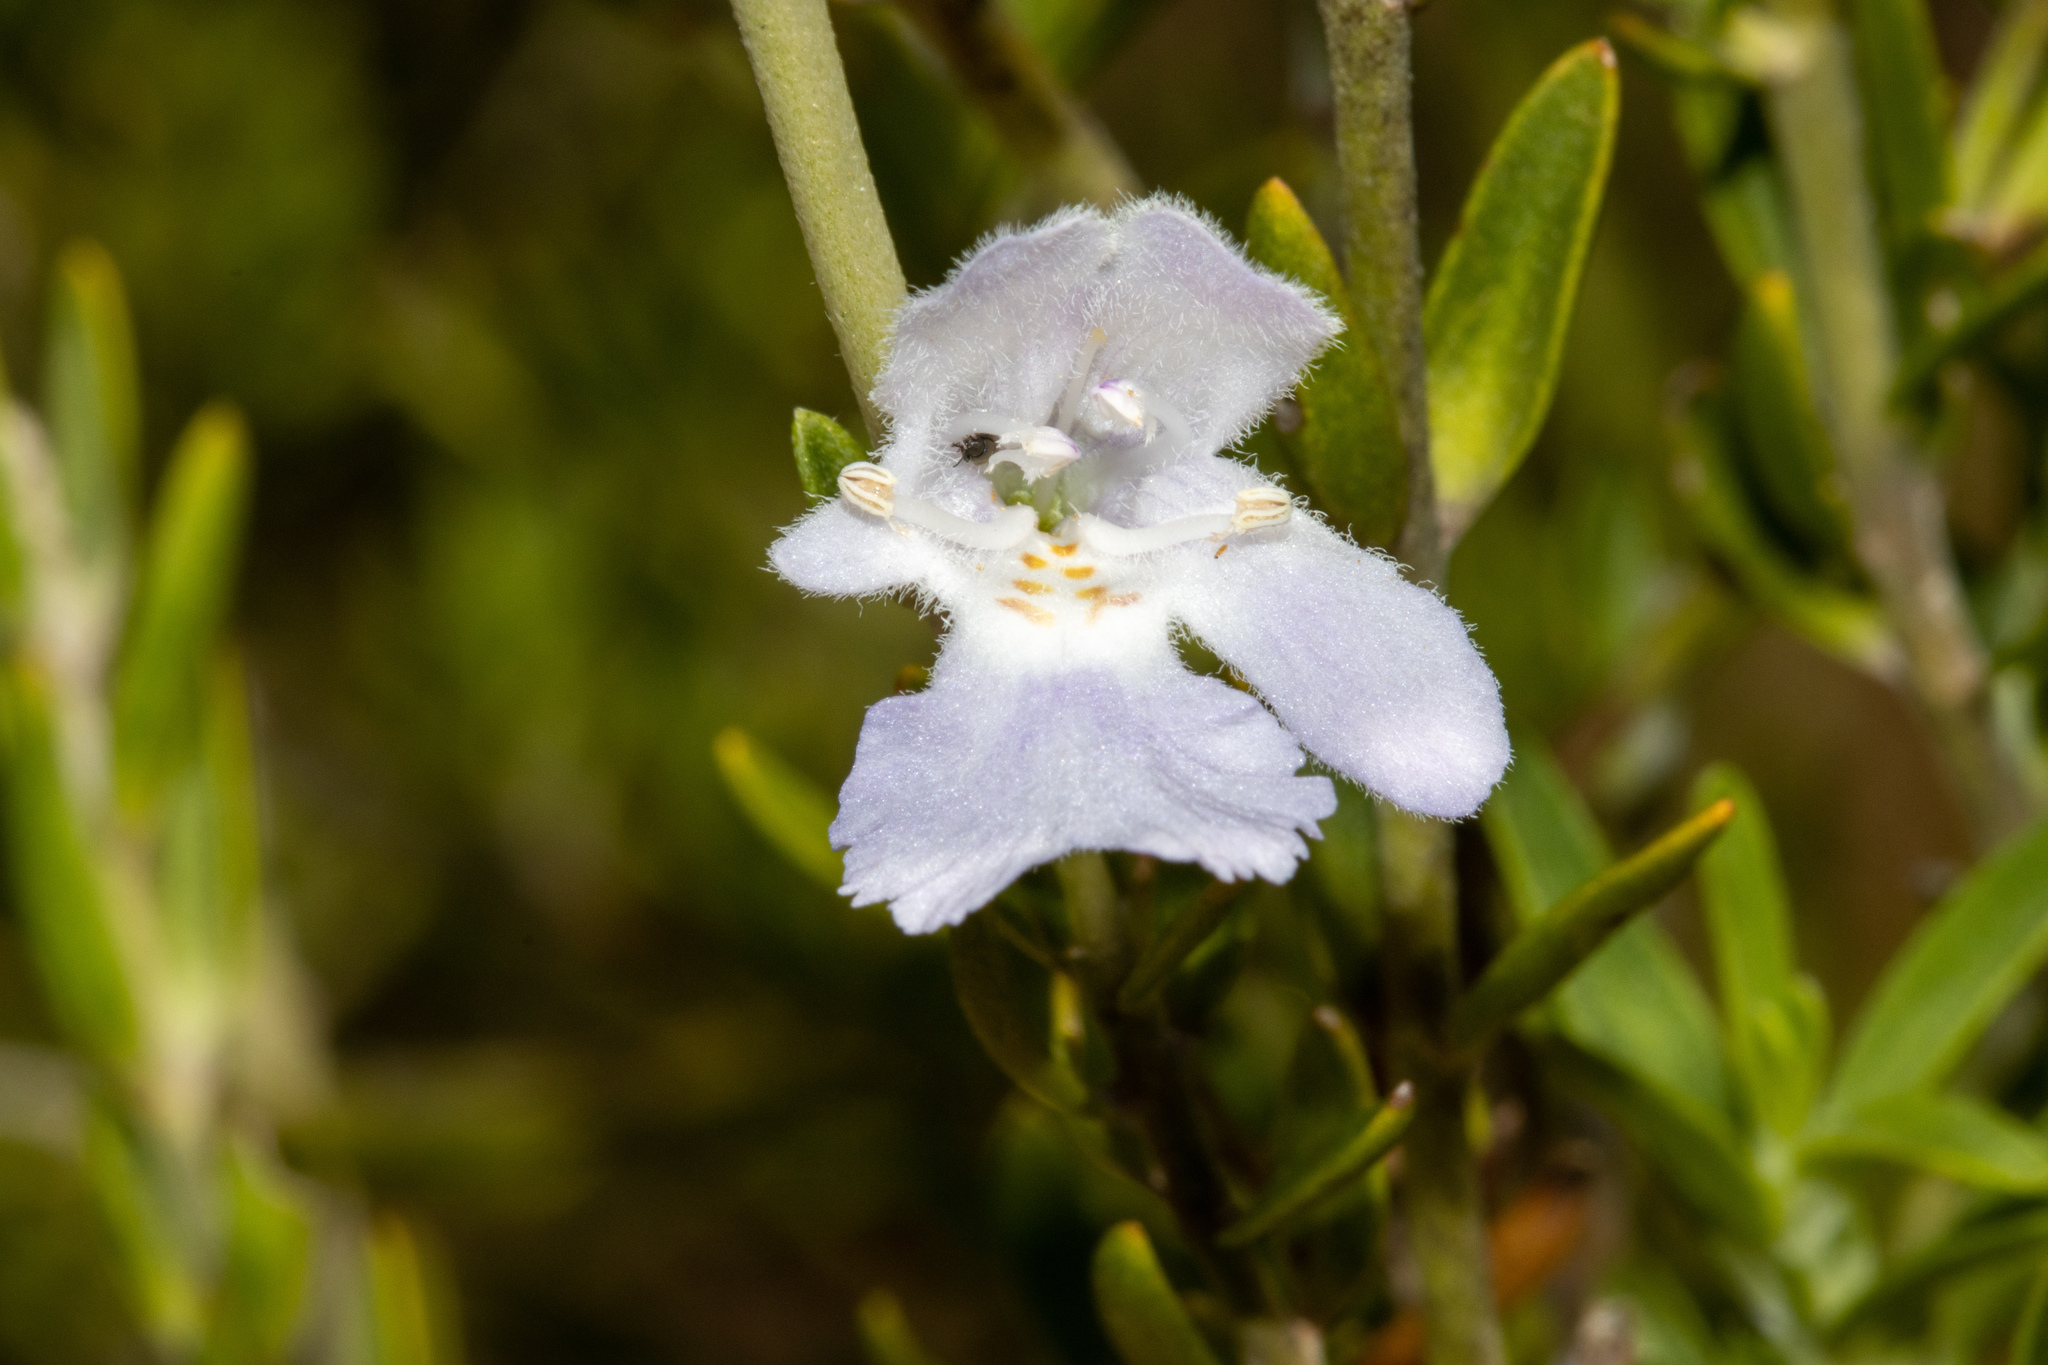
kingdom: Plantae
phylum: Tracheophyta
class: Magnoliopsida
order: Lamiales
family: Lamiaceae
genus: Prostanthera
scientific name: Prostanthera behriana
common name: Downy mintbush
